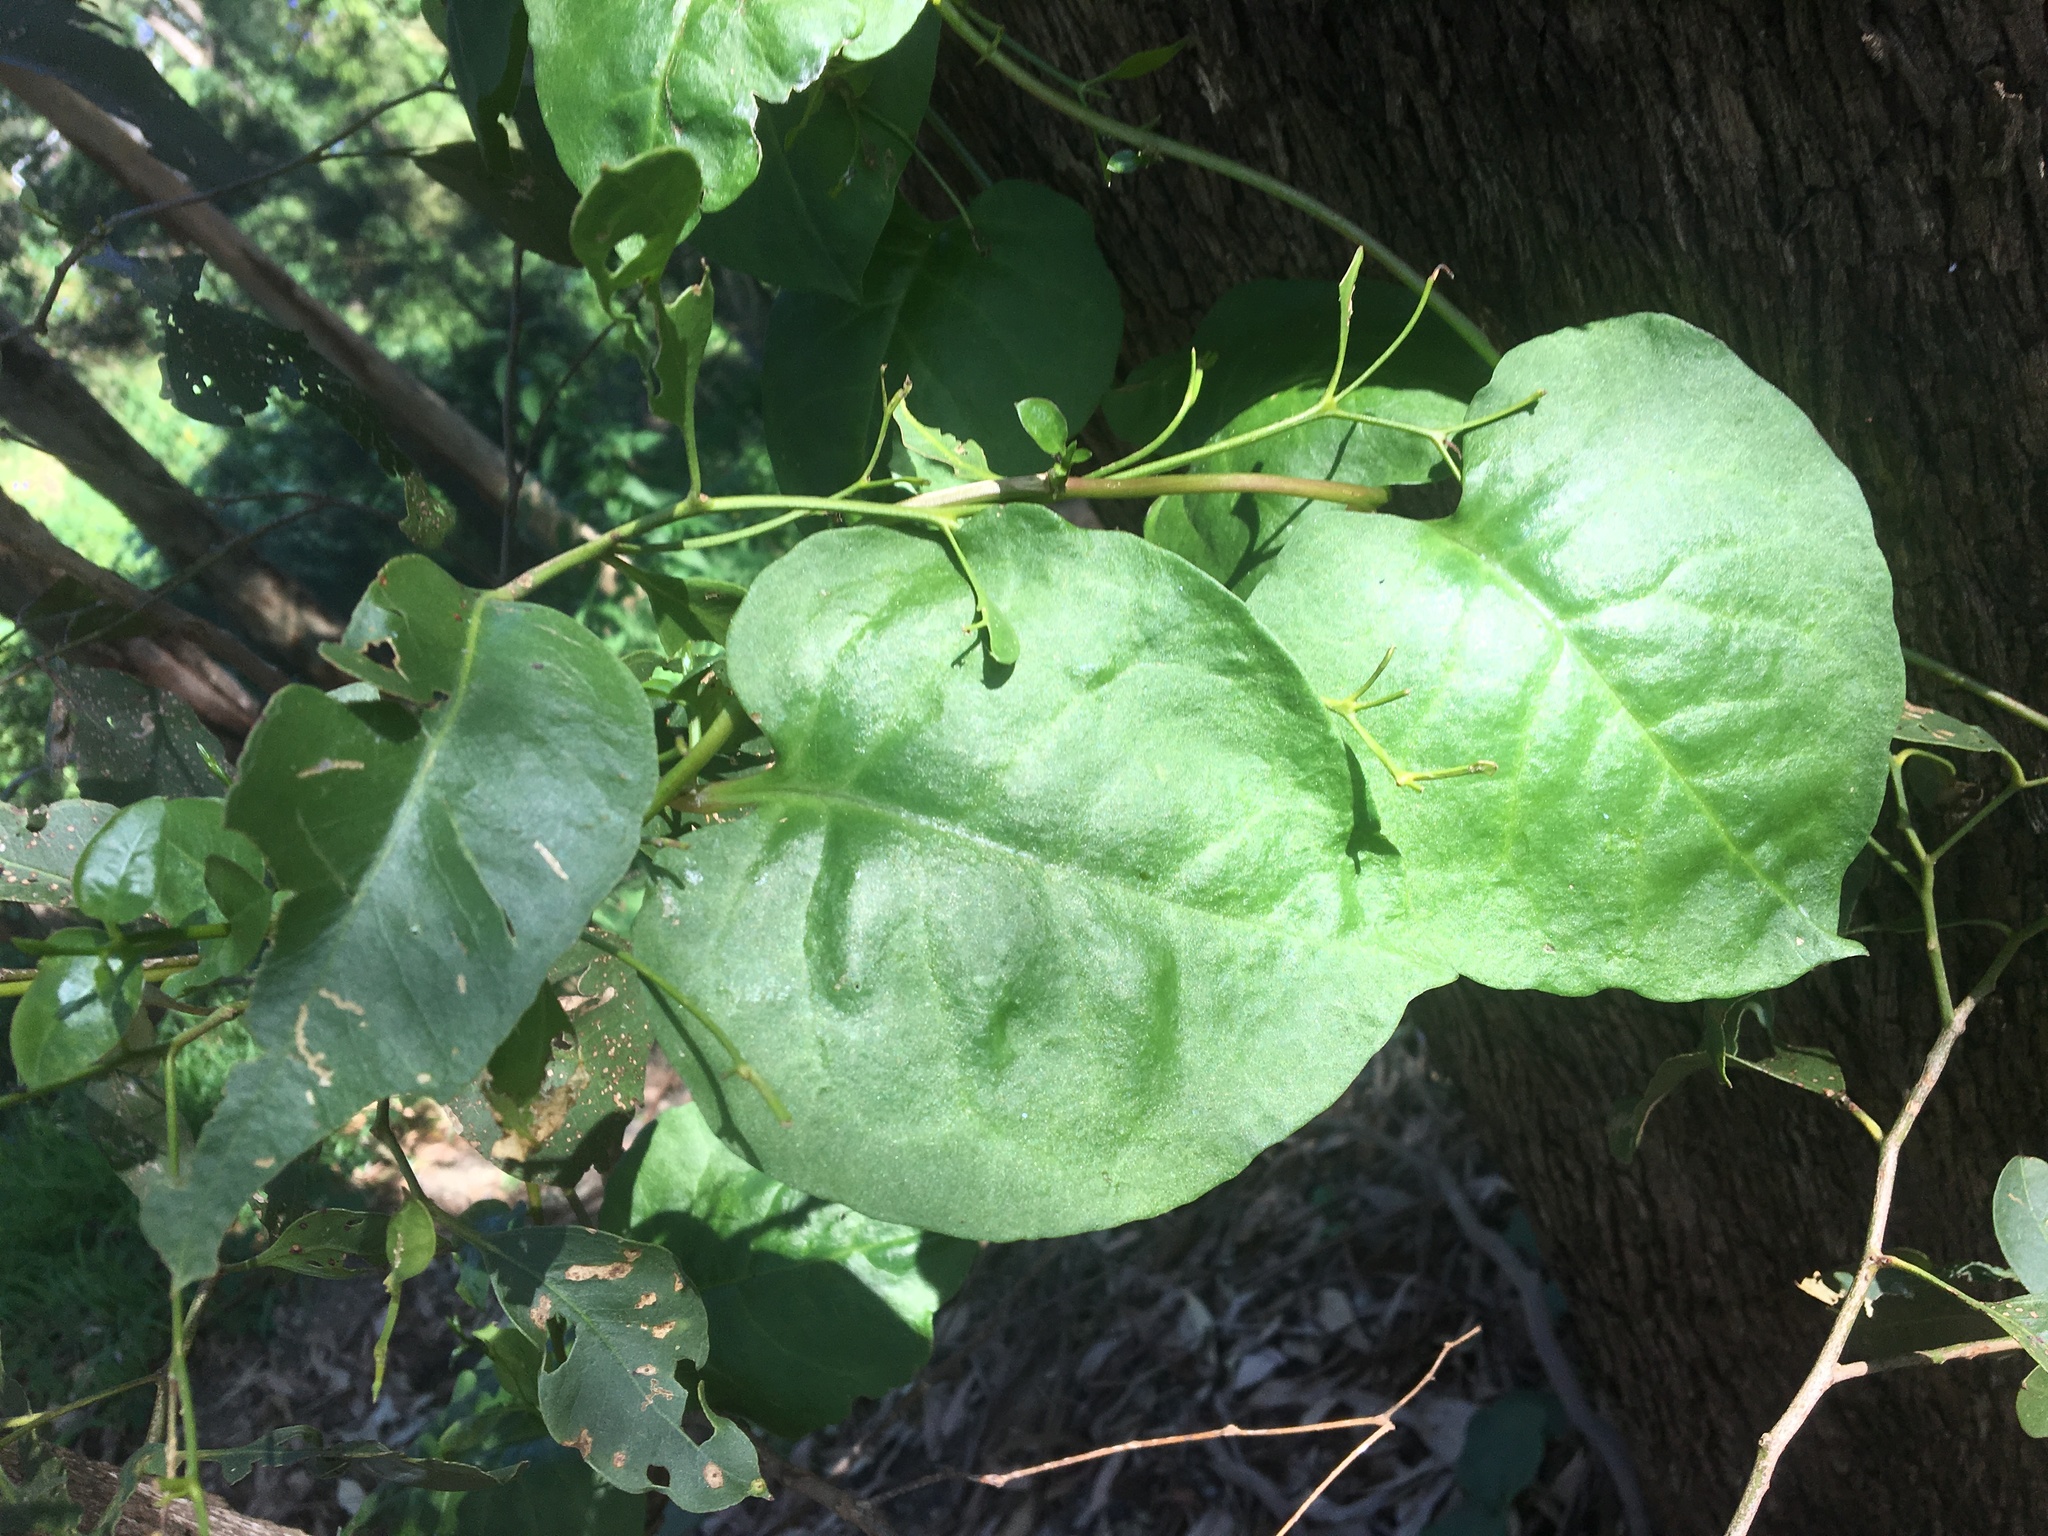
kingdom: Plantae
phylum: Tracheophyta
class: Magnoliopsida
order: Caryophyllales
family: Basellaceae
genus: Anredera
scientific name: Anredera cordifolia
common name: Heartleaf madeiravine
